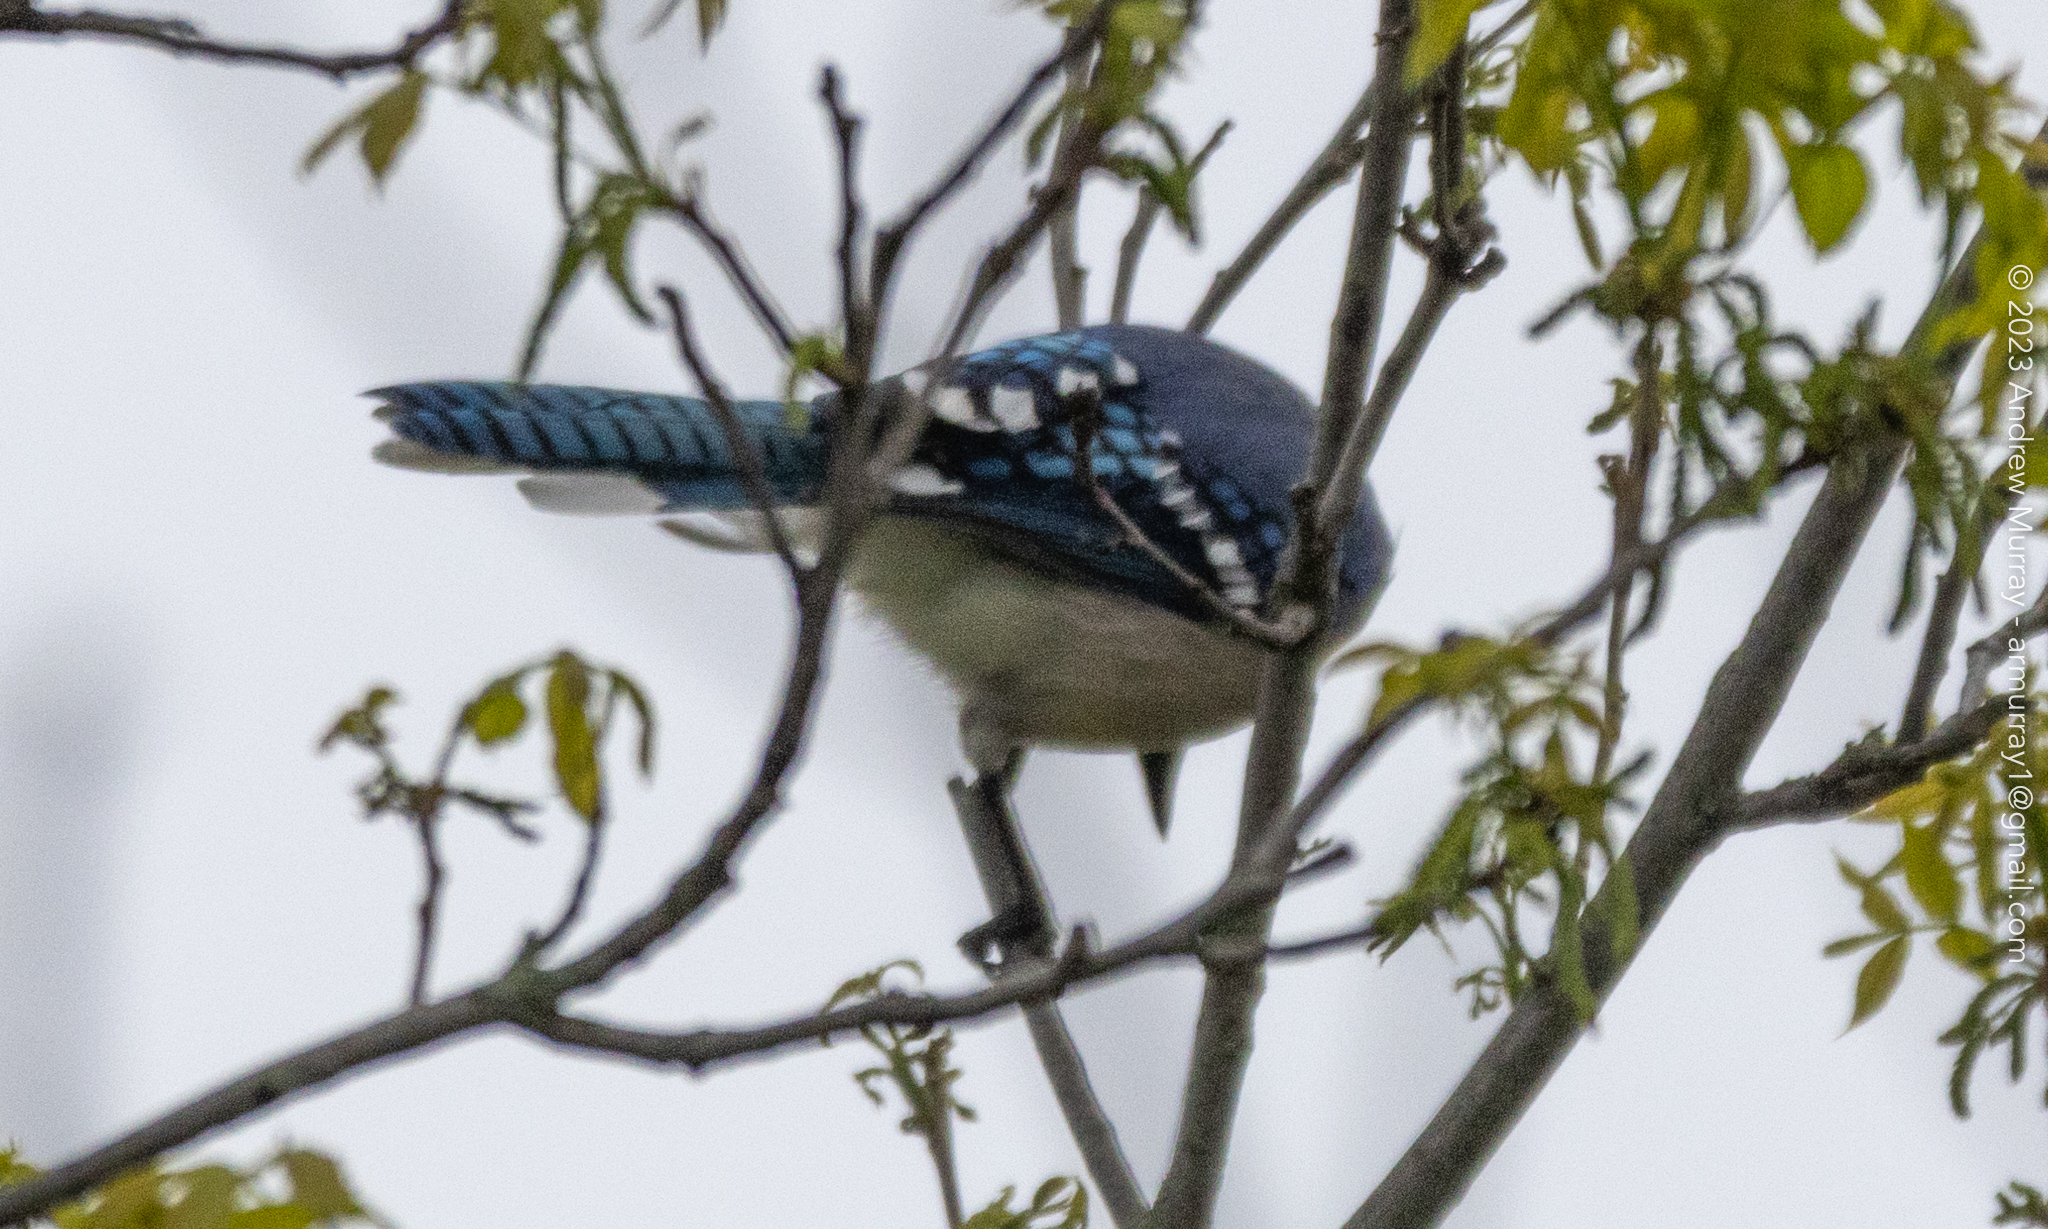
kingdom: Animalia
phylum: Chordata
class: Aves
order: Passeriformes
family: Corvidae
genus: Cyanocitta
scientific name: Cyanocitta cristata
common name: Blue jay
